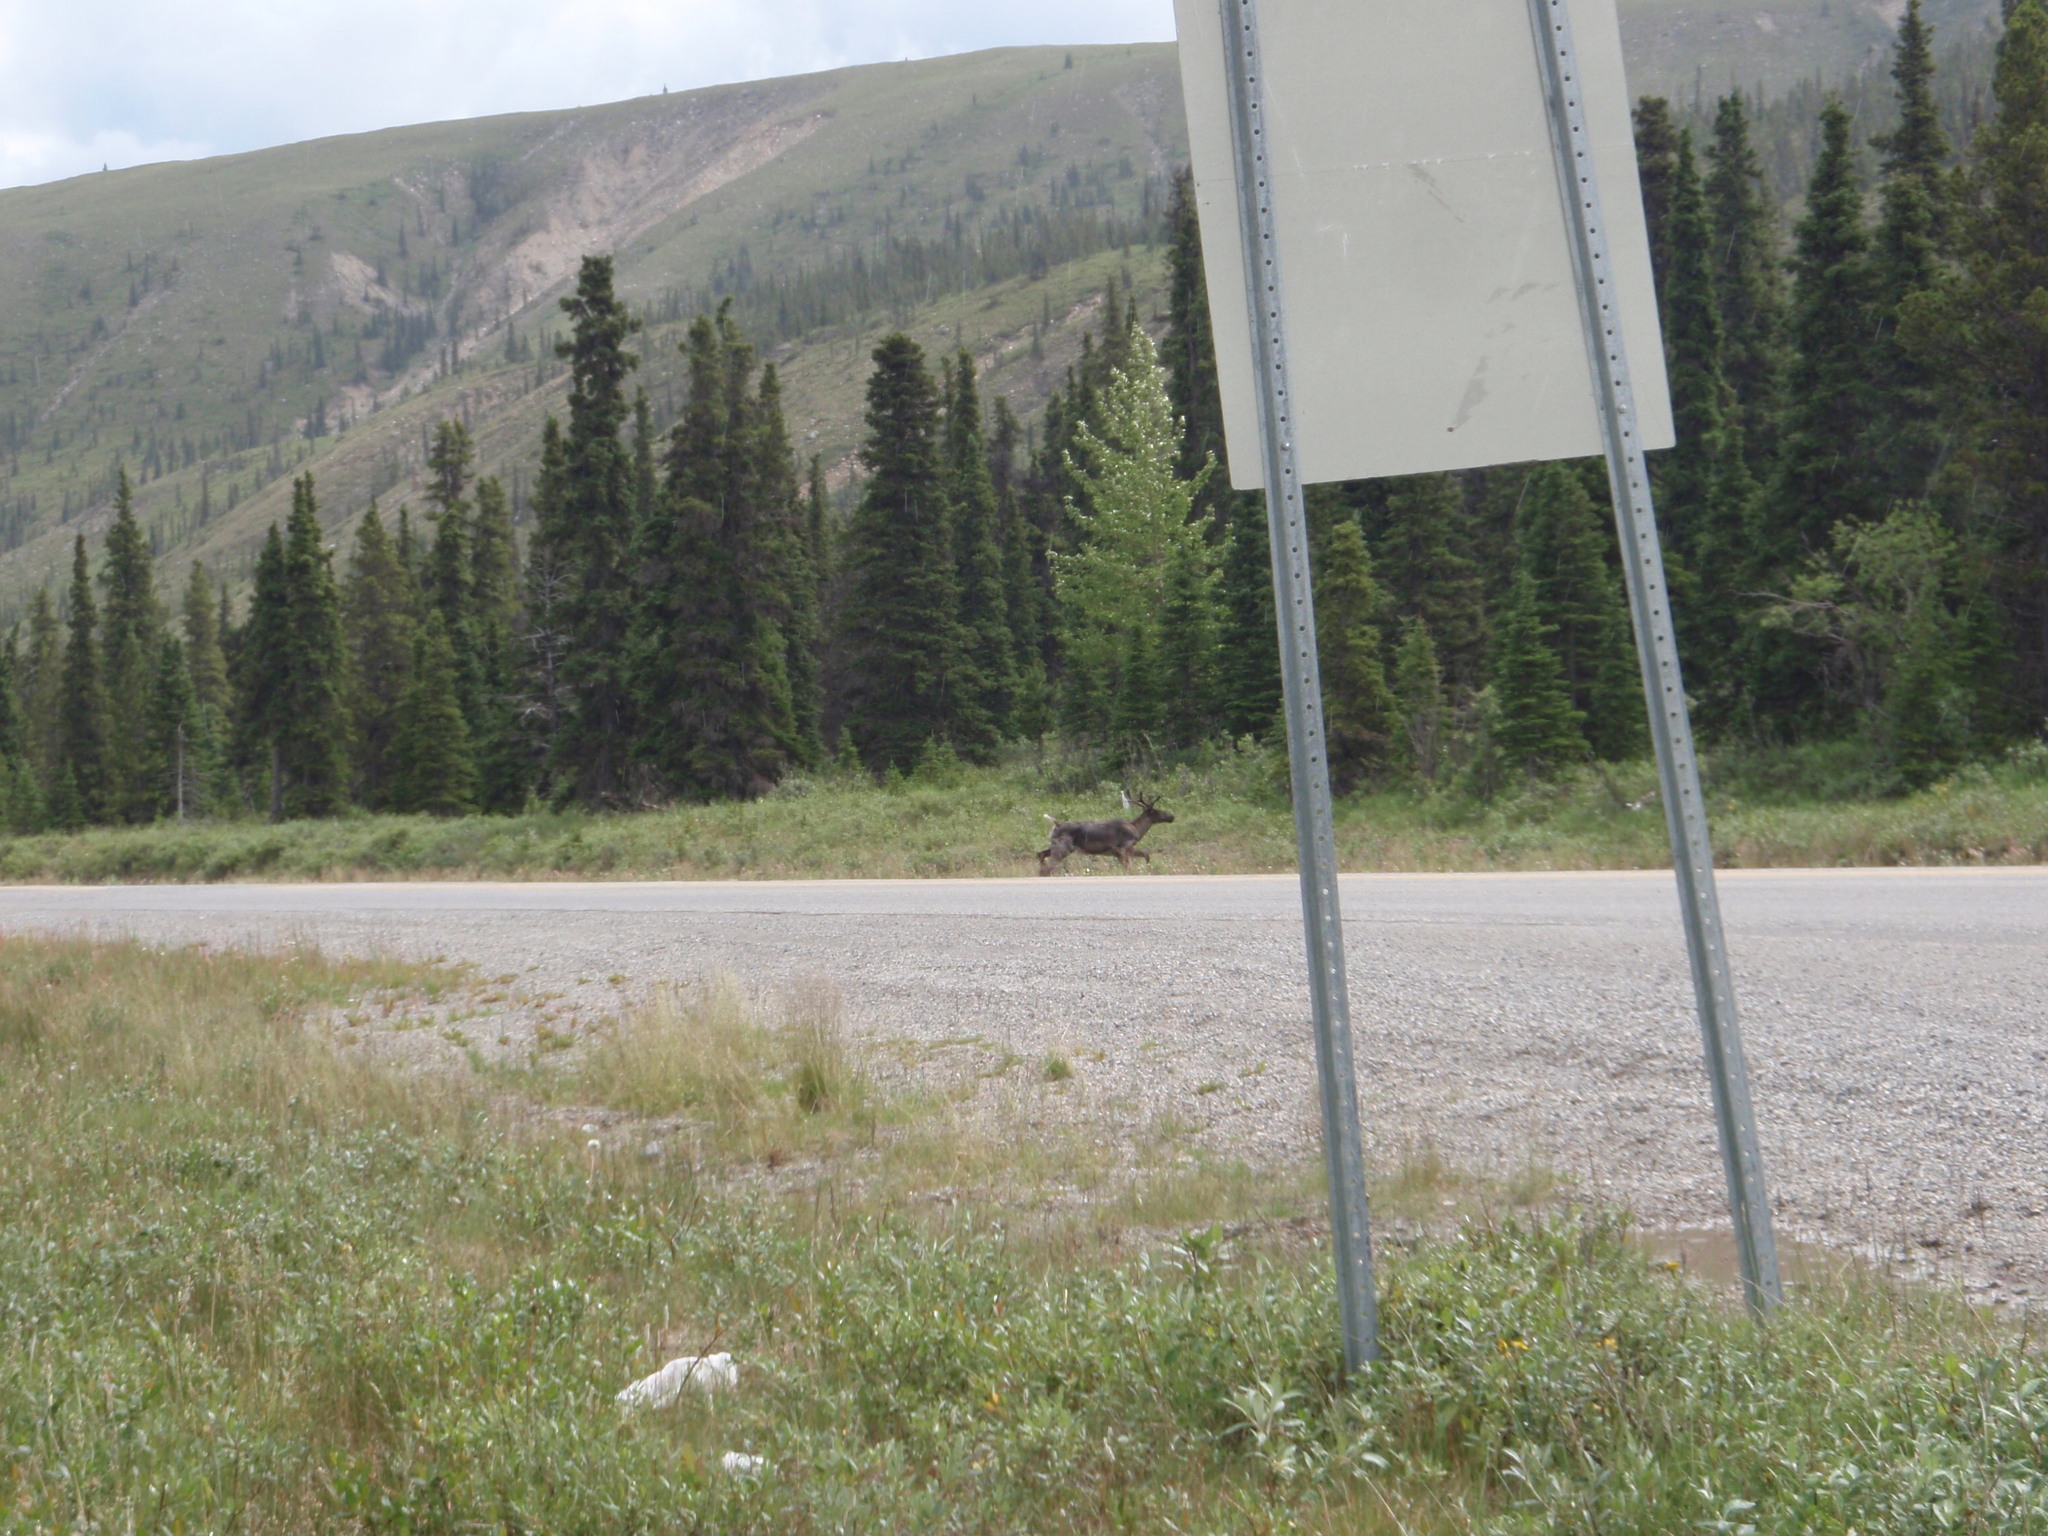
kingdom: Animalia
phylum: Chordata
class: Mammalia
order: Artiodactyla
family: Cervidae
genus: Rangifer
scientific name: Rangifer tarandus
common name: Reindeer
